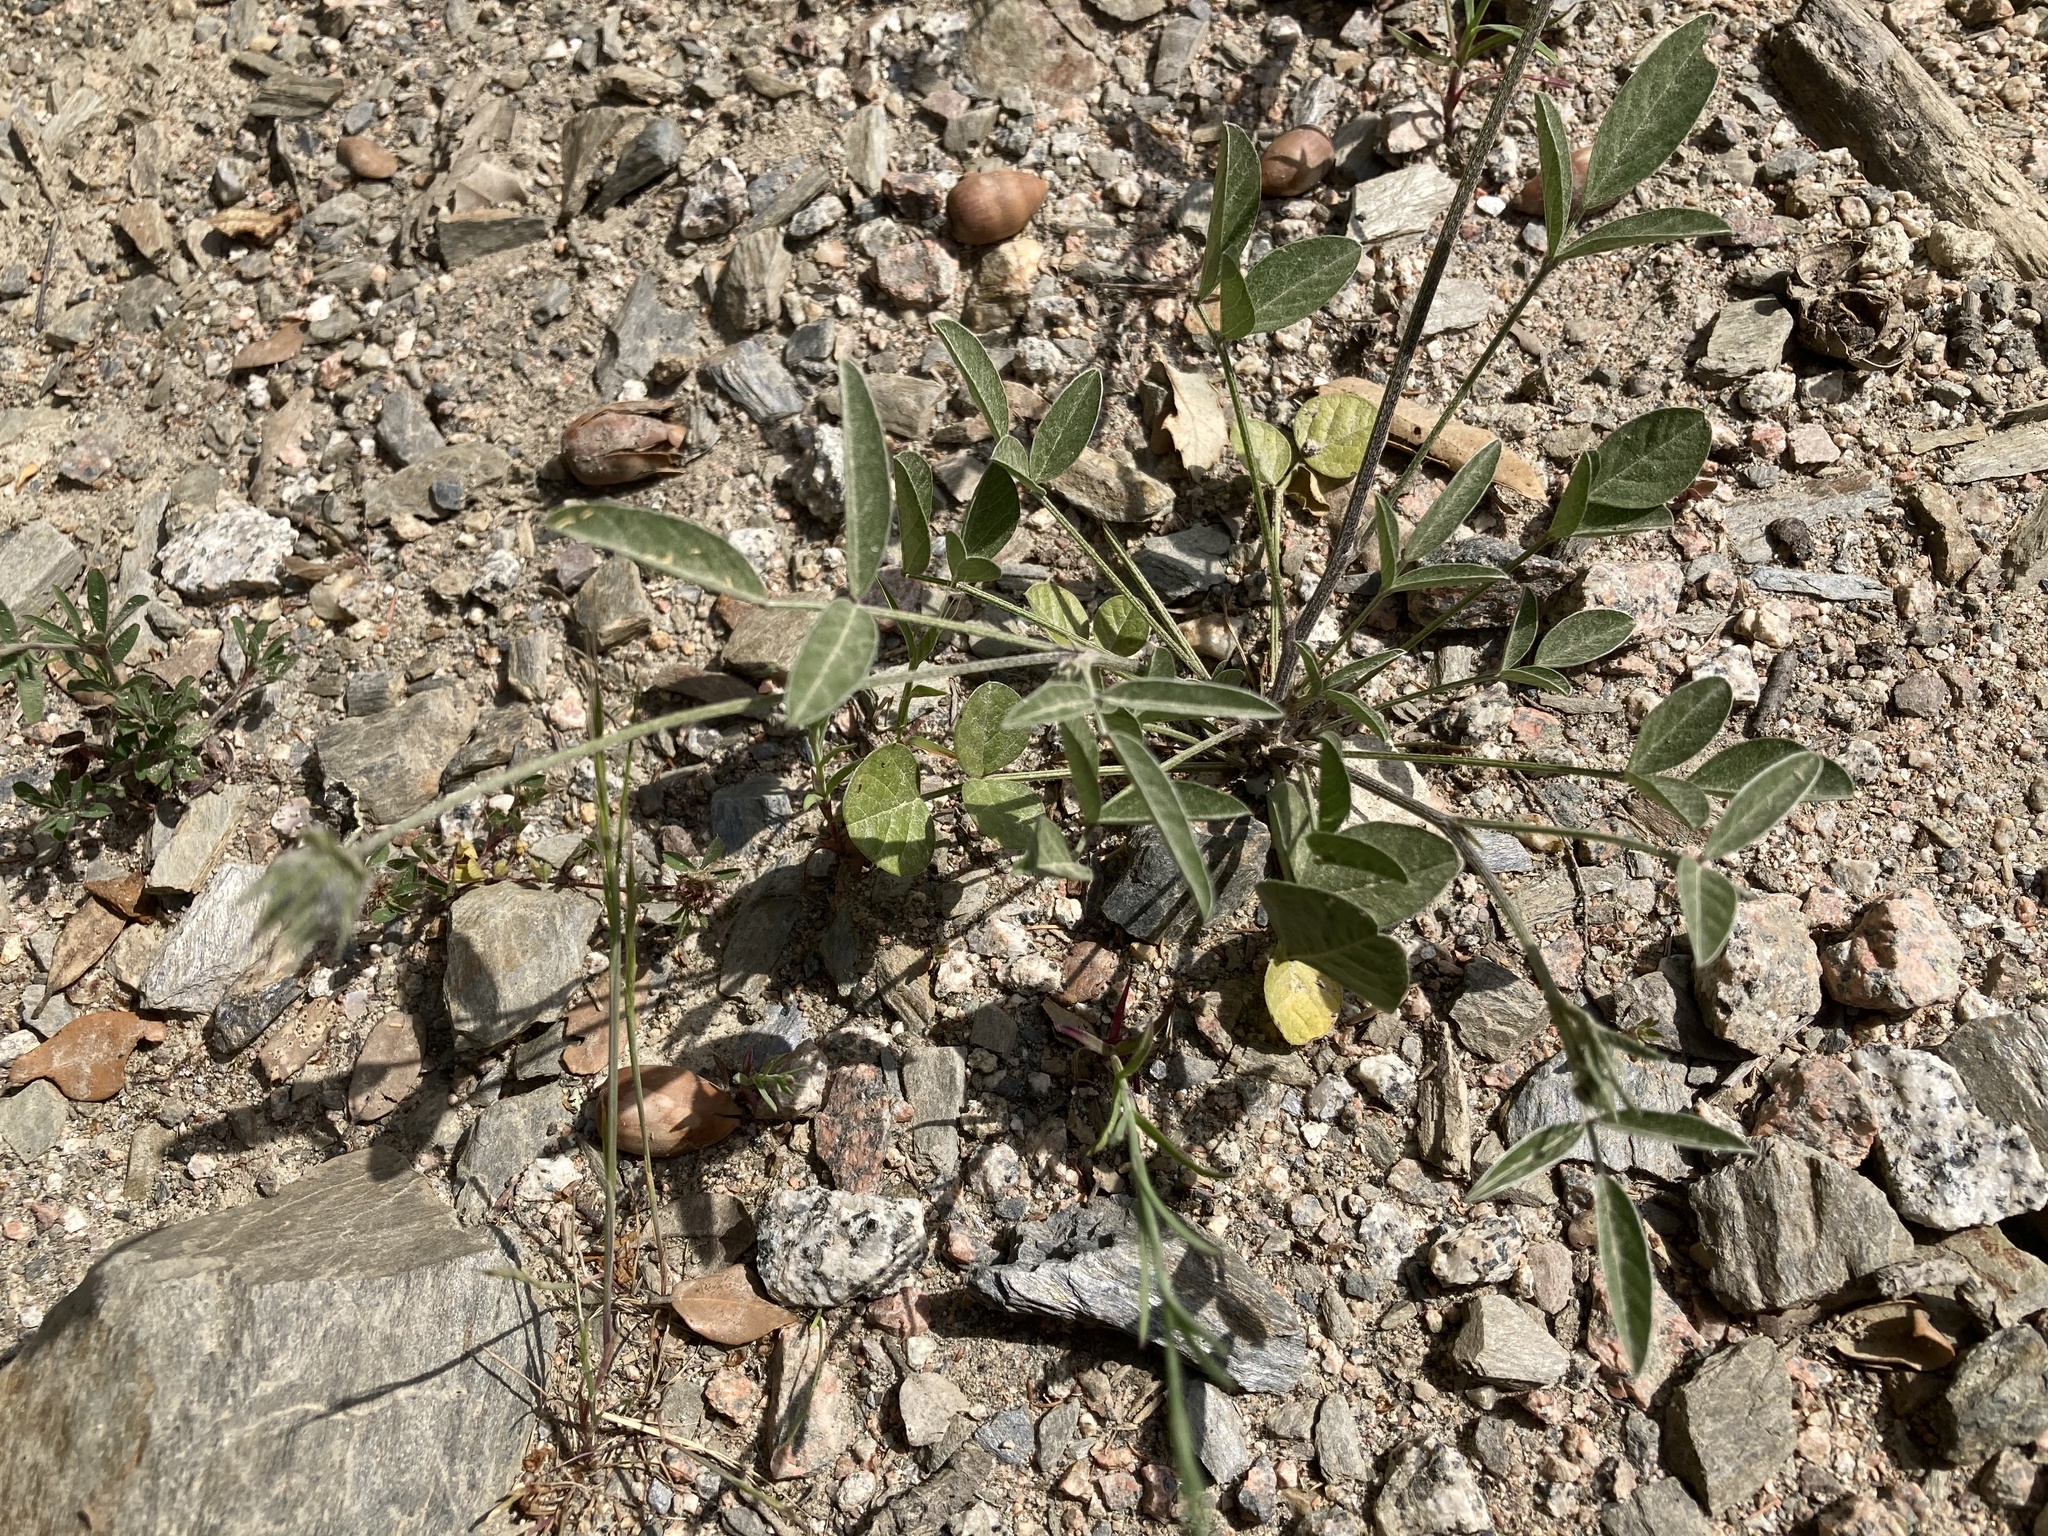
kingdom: Plantae
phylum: Tracheophyta
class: Magnoliopsida
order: Fabales
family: Fabaceae
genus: Bituminaria
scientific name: Bituminaria bituminosa
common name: Arabian pea
